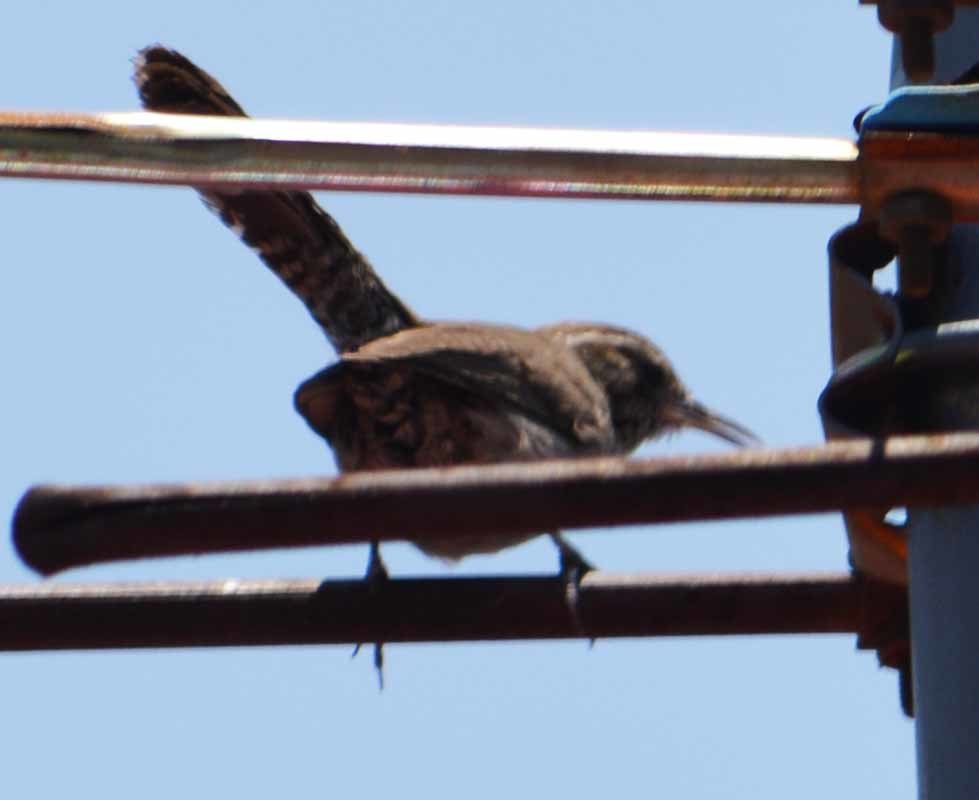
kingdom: Animalia
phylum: Chordata
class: Aves
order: Passeriformes
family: Troglodytidae
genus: Thryomanes
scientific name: Thryomanes bewickii
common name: Bewick's wren
